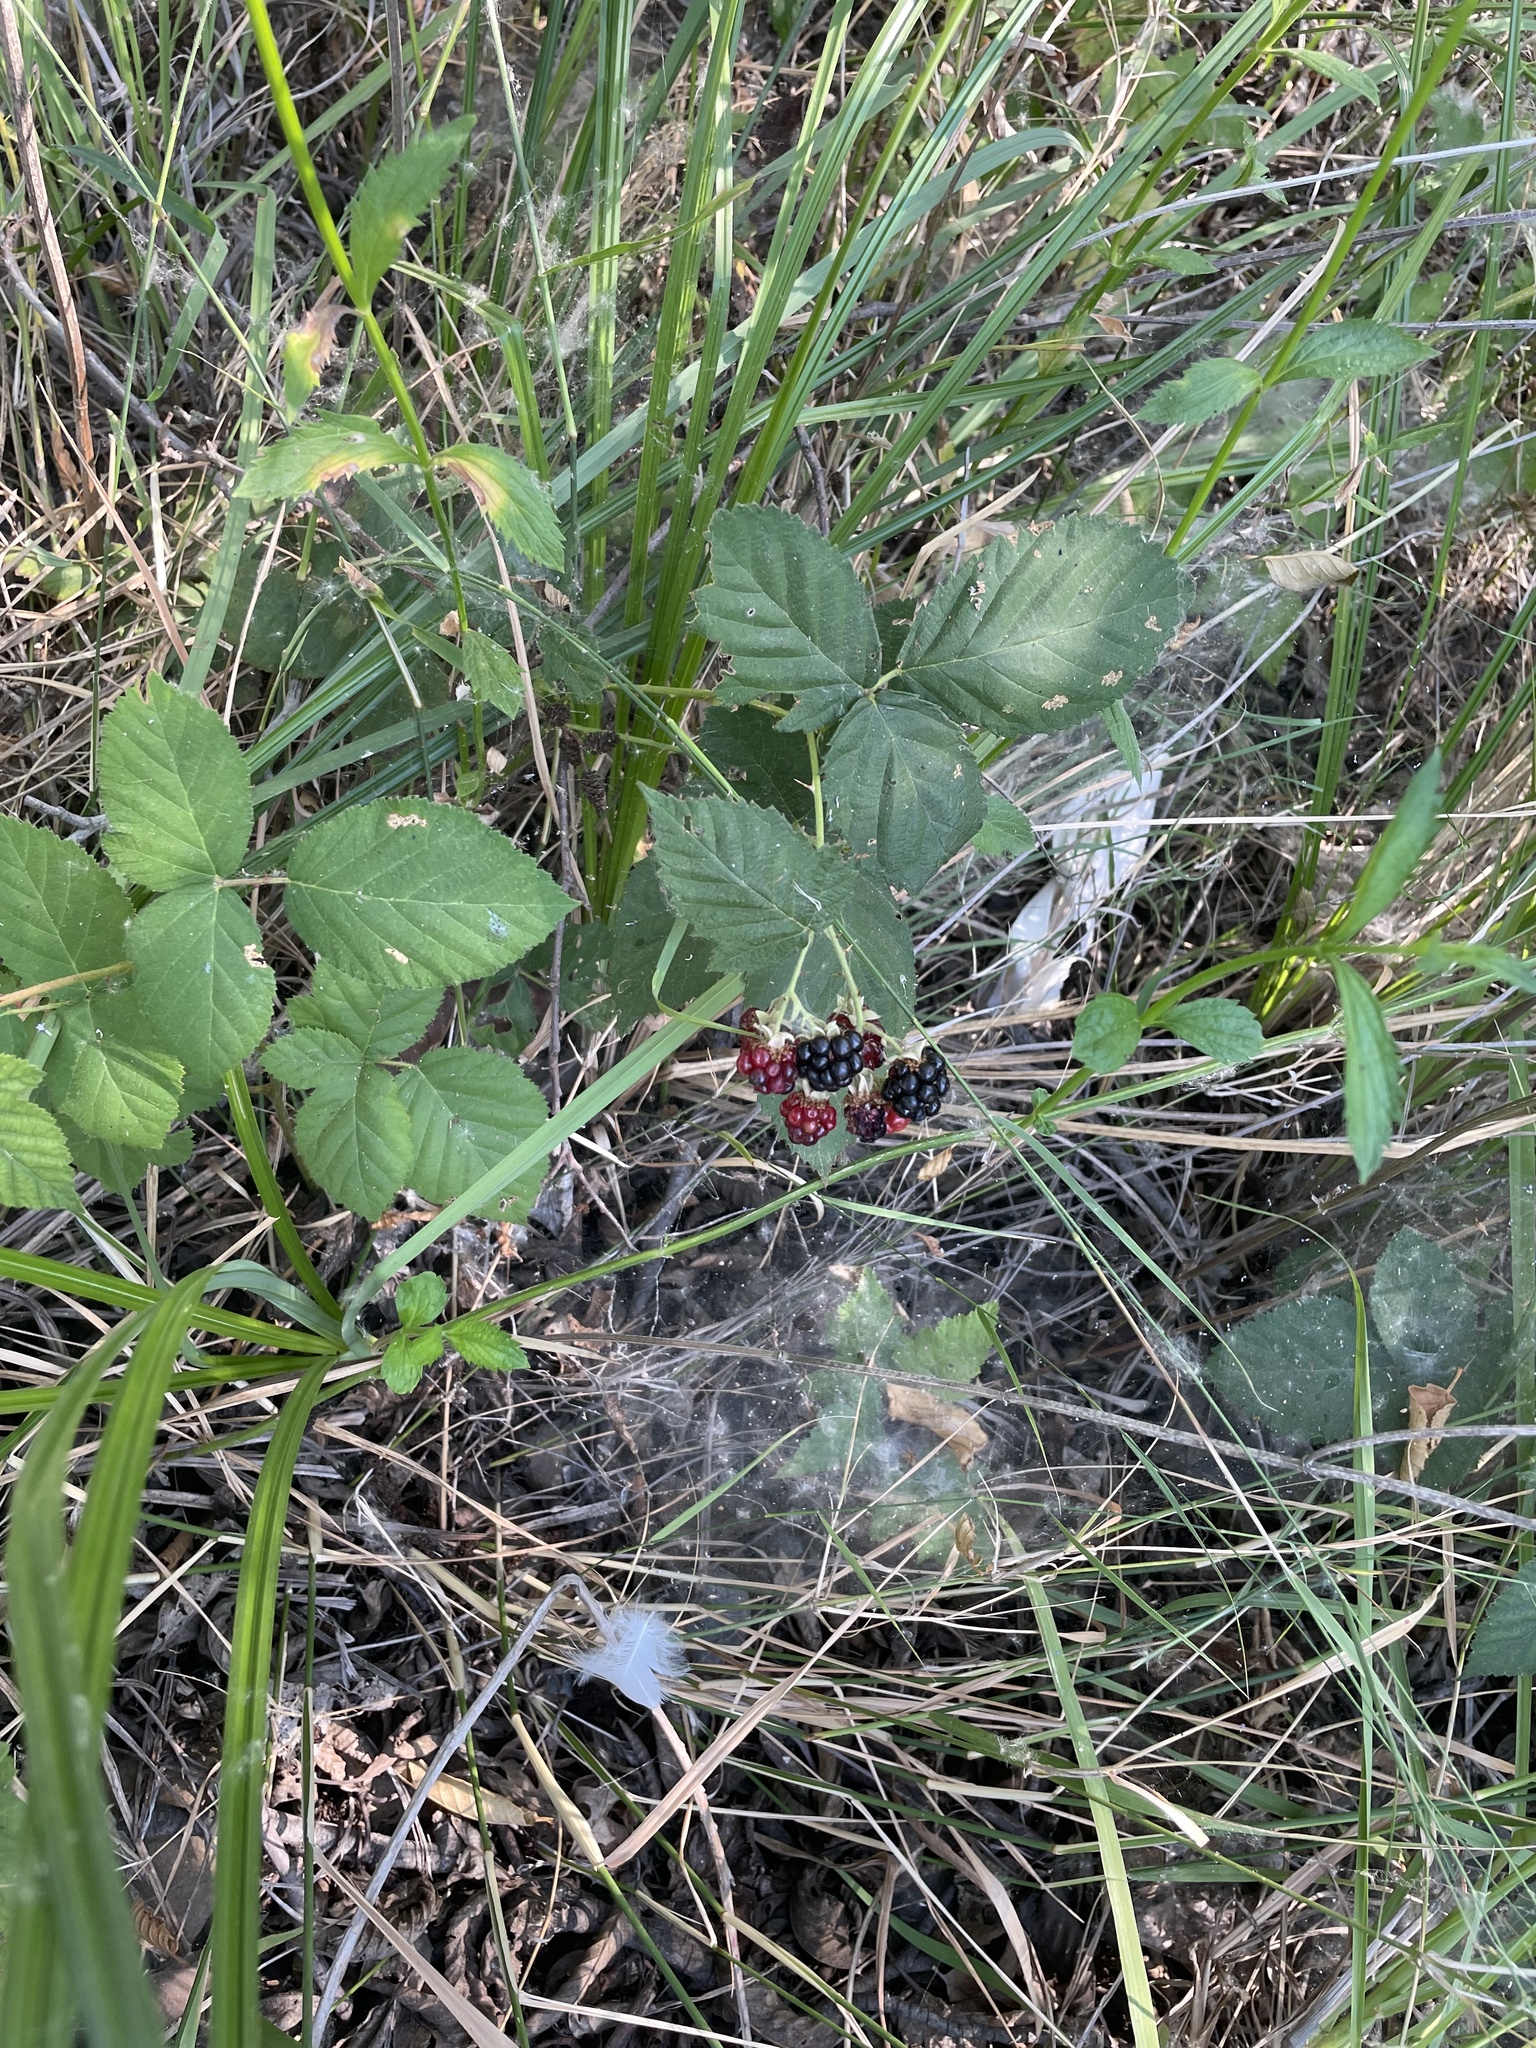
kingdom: Plantae
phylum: Tracheophyta
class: Magnoliopsida
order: Rosales
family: Rosaceae
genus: Rubus
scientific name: Rubus armeniacus
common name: Himalayan blackberry
